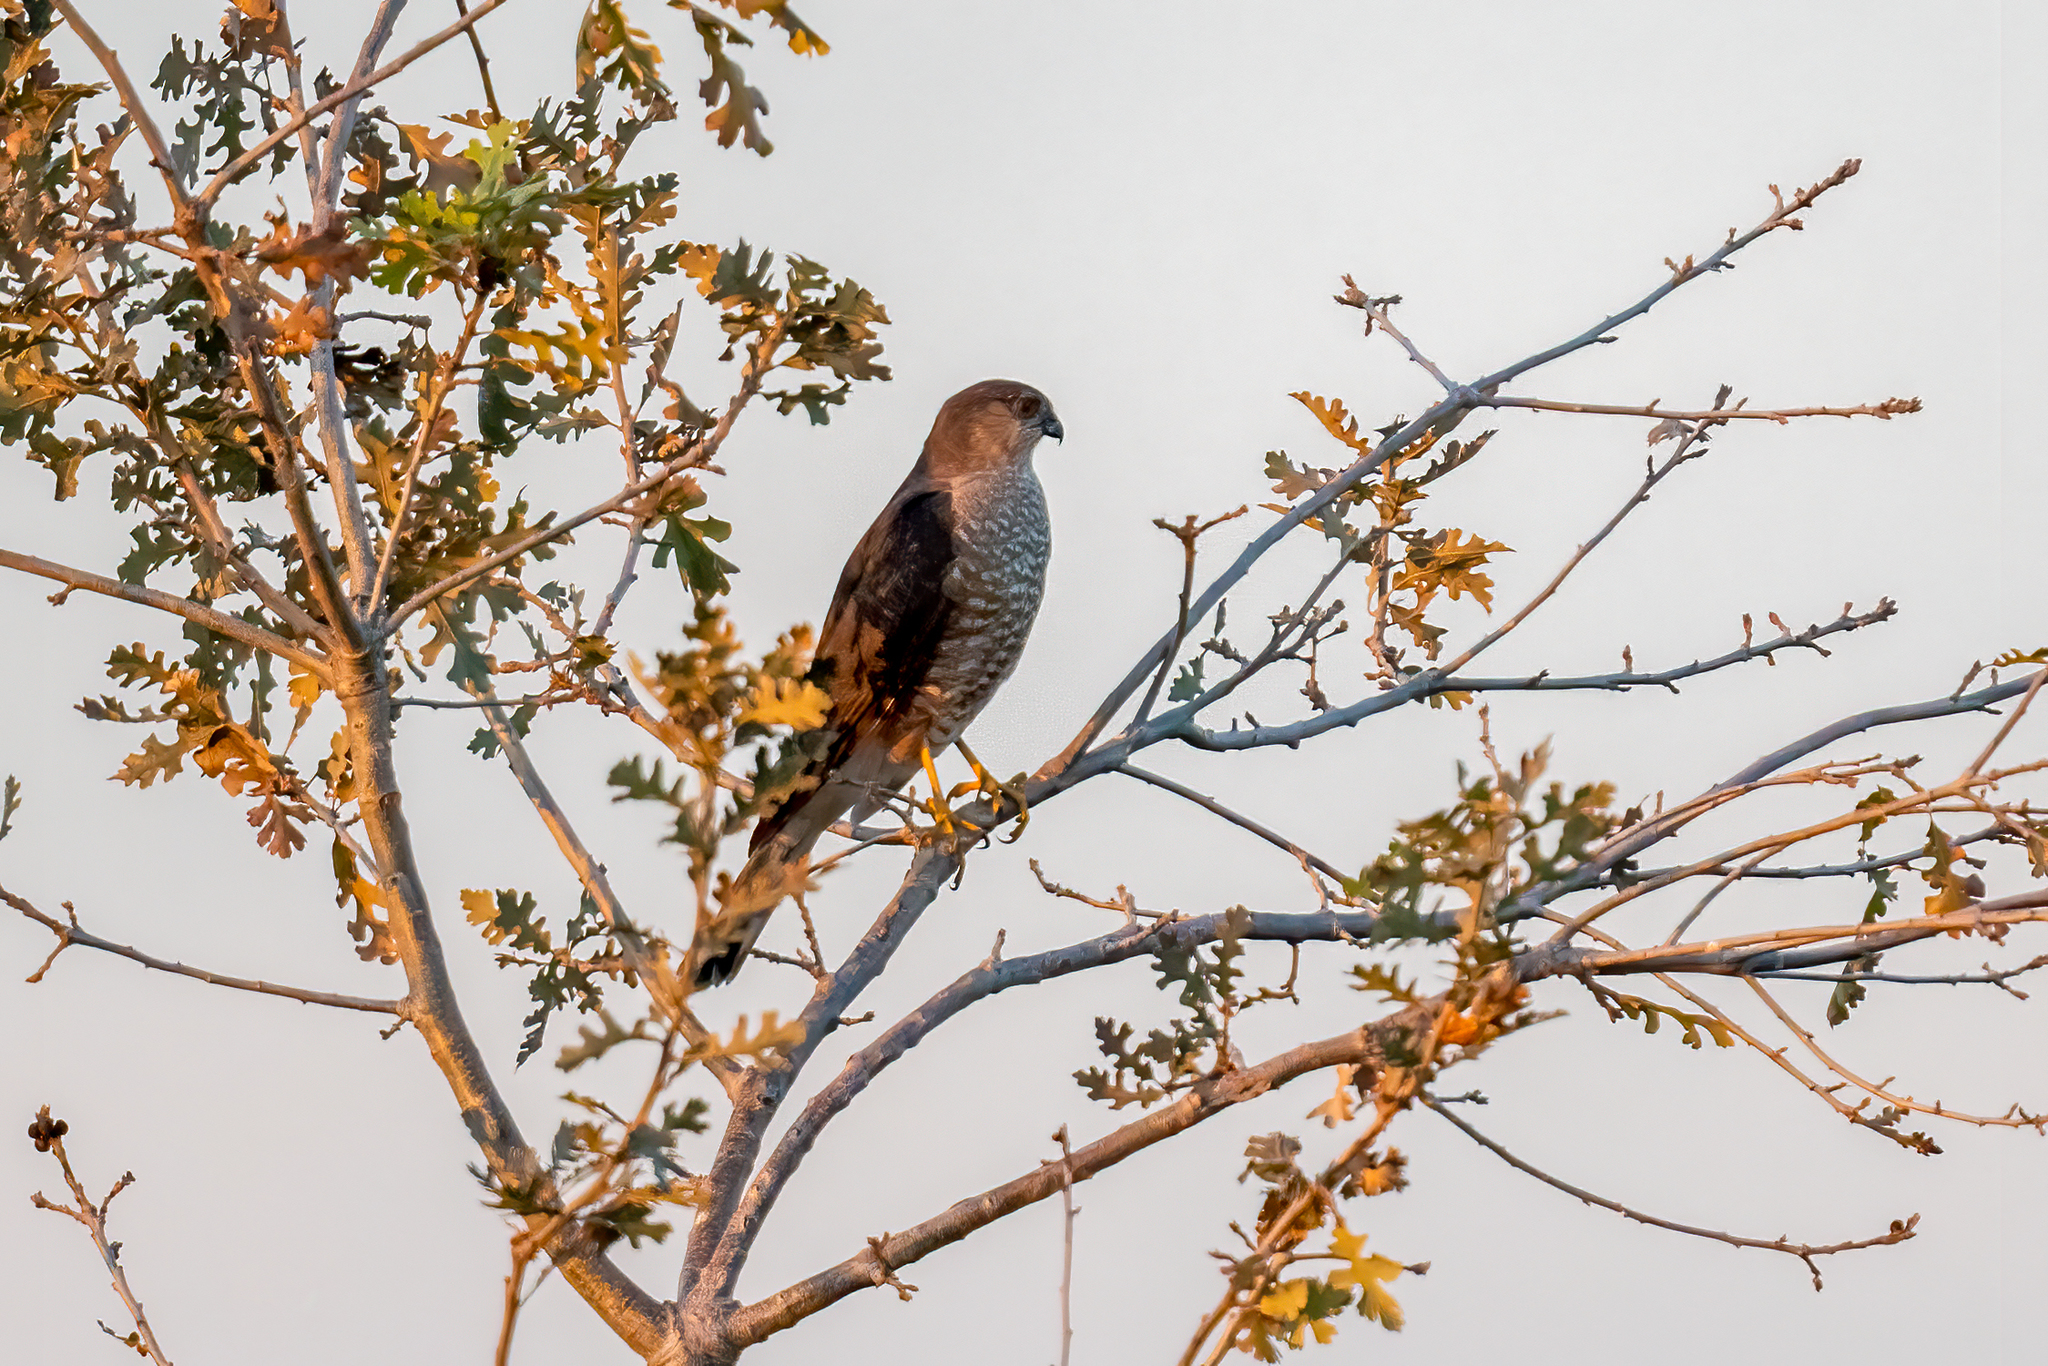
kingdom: Animalia
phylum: Chordata
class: Aves
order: Accipitriformes
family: Accipitridae
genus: Accipiter
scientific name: Accipiter striatus
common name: Sharp-shinned hawk
